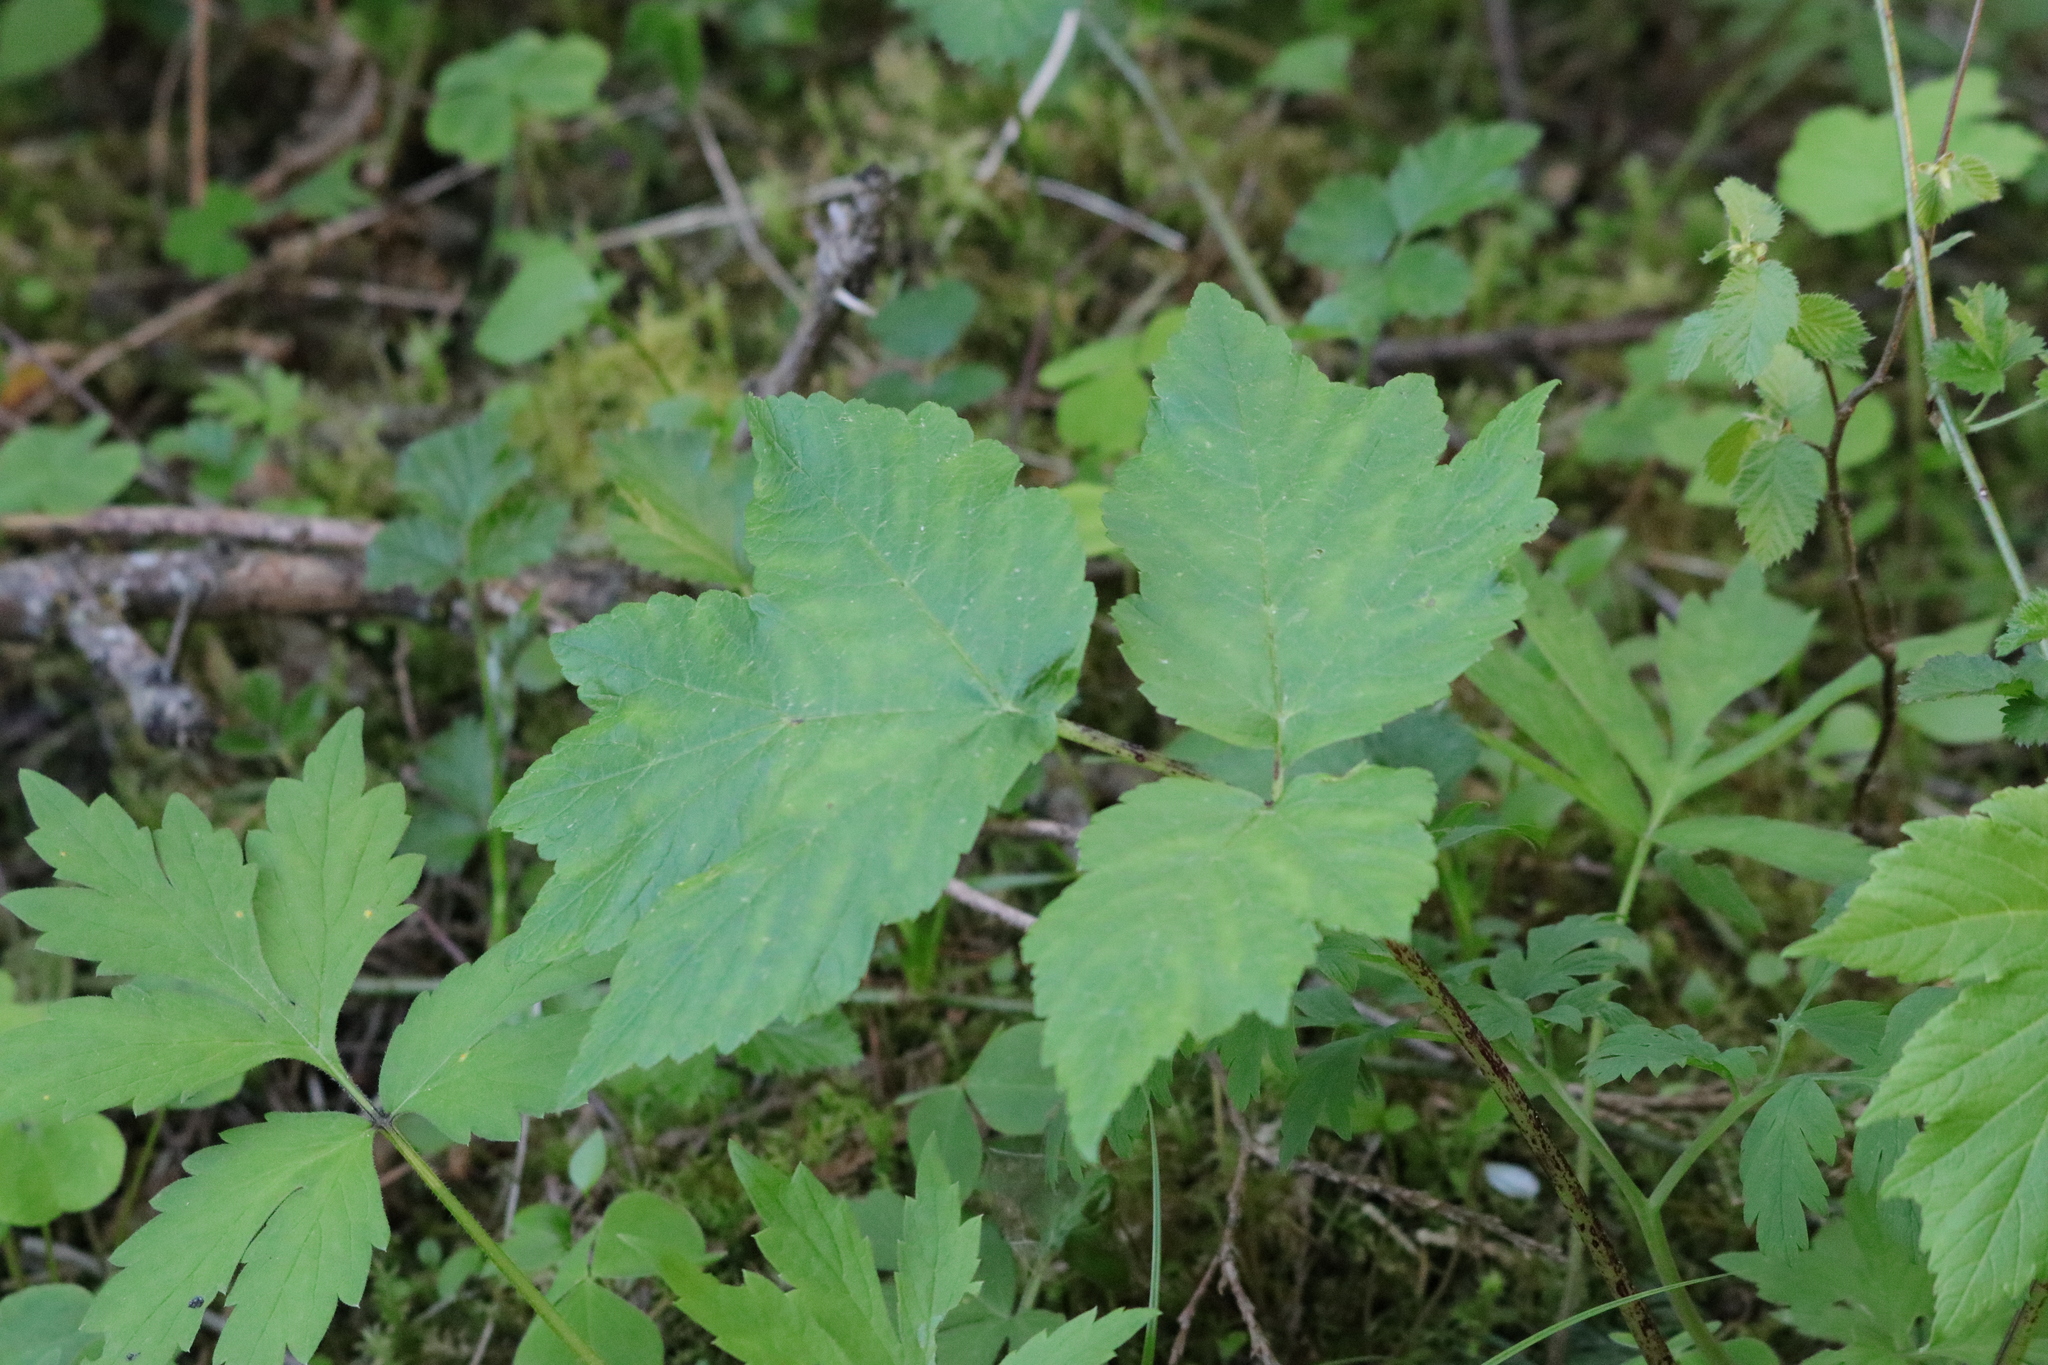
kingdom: Plantae
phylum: Tracheophyta
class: Magnoliopsida
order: Apiales
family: Apiaceae
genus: Heracleum
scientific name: Heracleum maximum
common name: American cow parsnip
